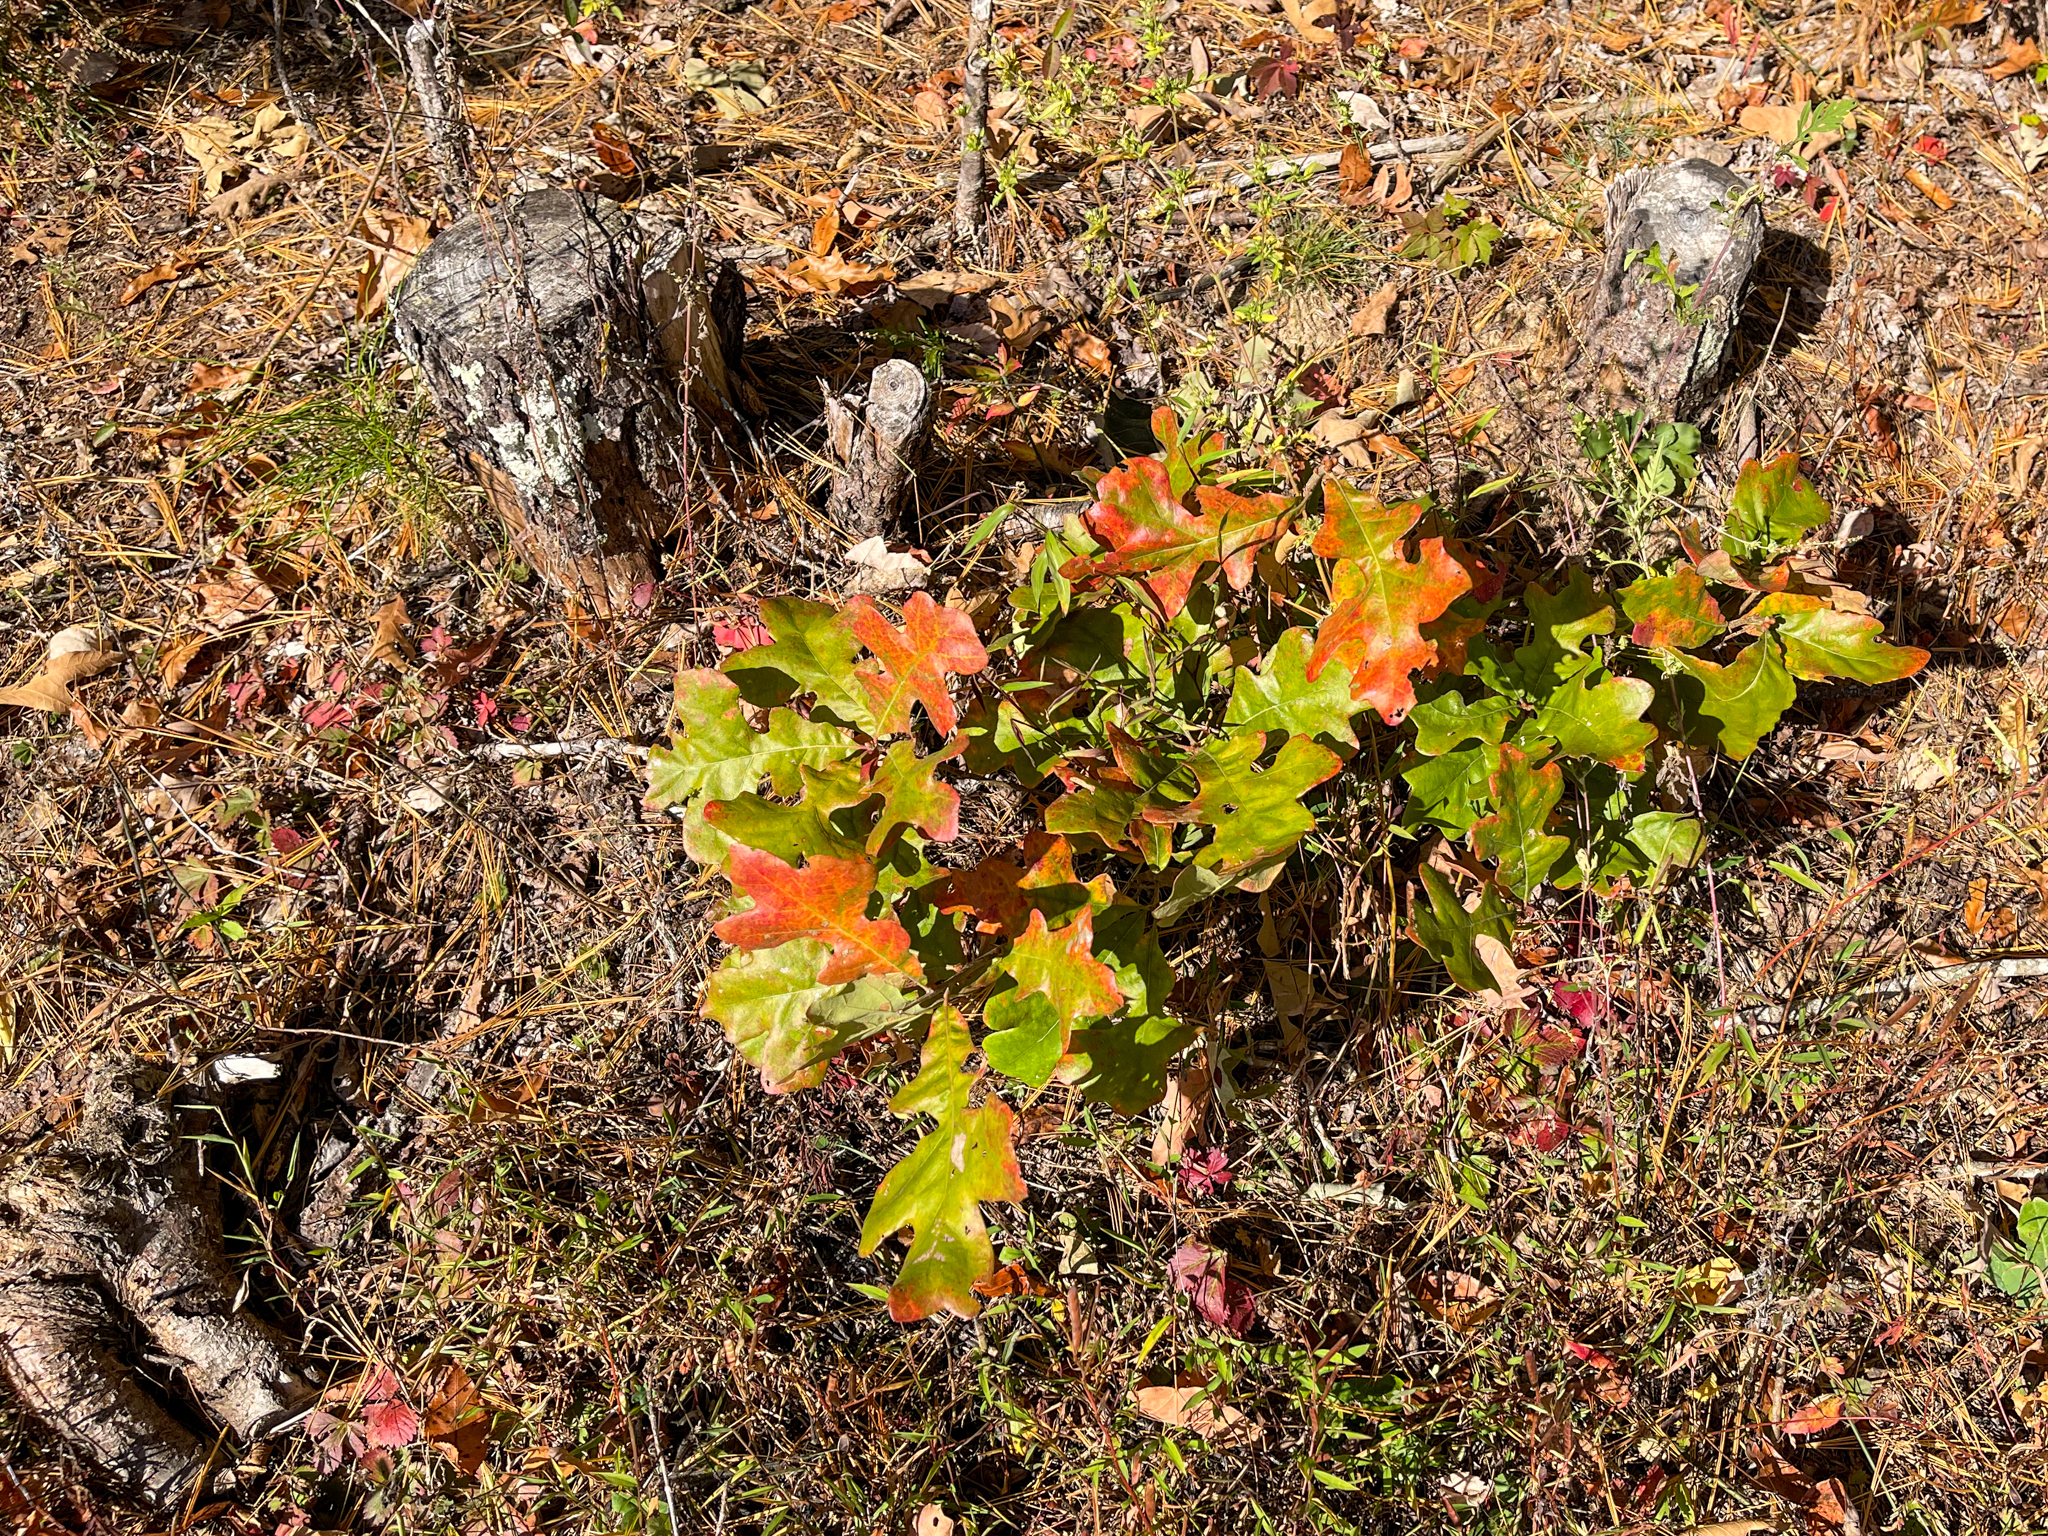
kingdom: Plantae
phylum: Tracheophyta
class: Magnoliopsida
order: Fagales
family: Fagaceae
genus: Quercus
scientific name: Quercus stellata
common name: Post oak
